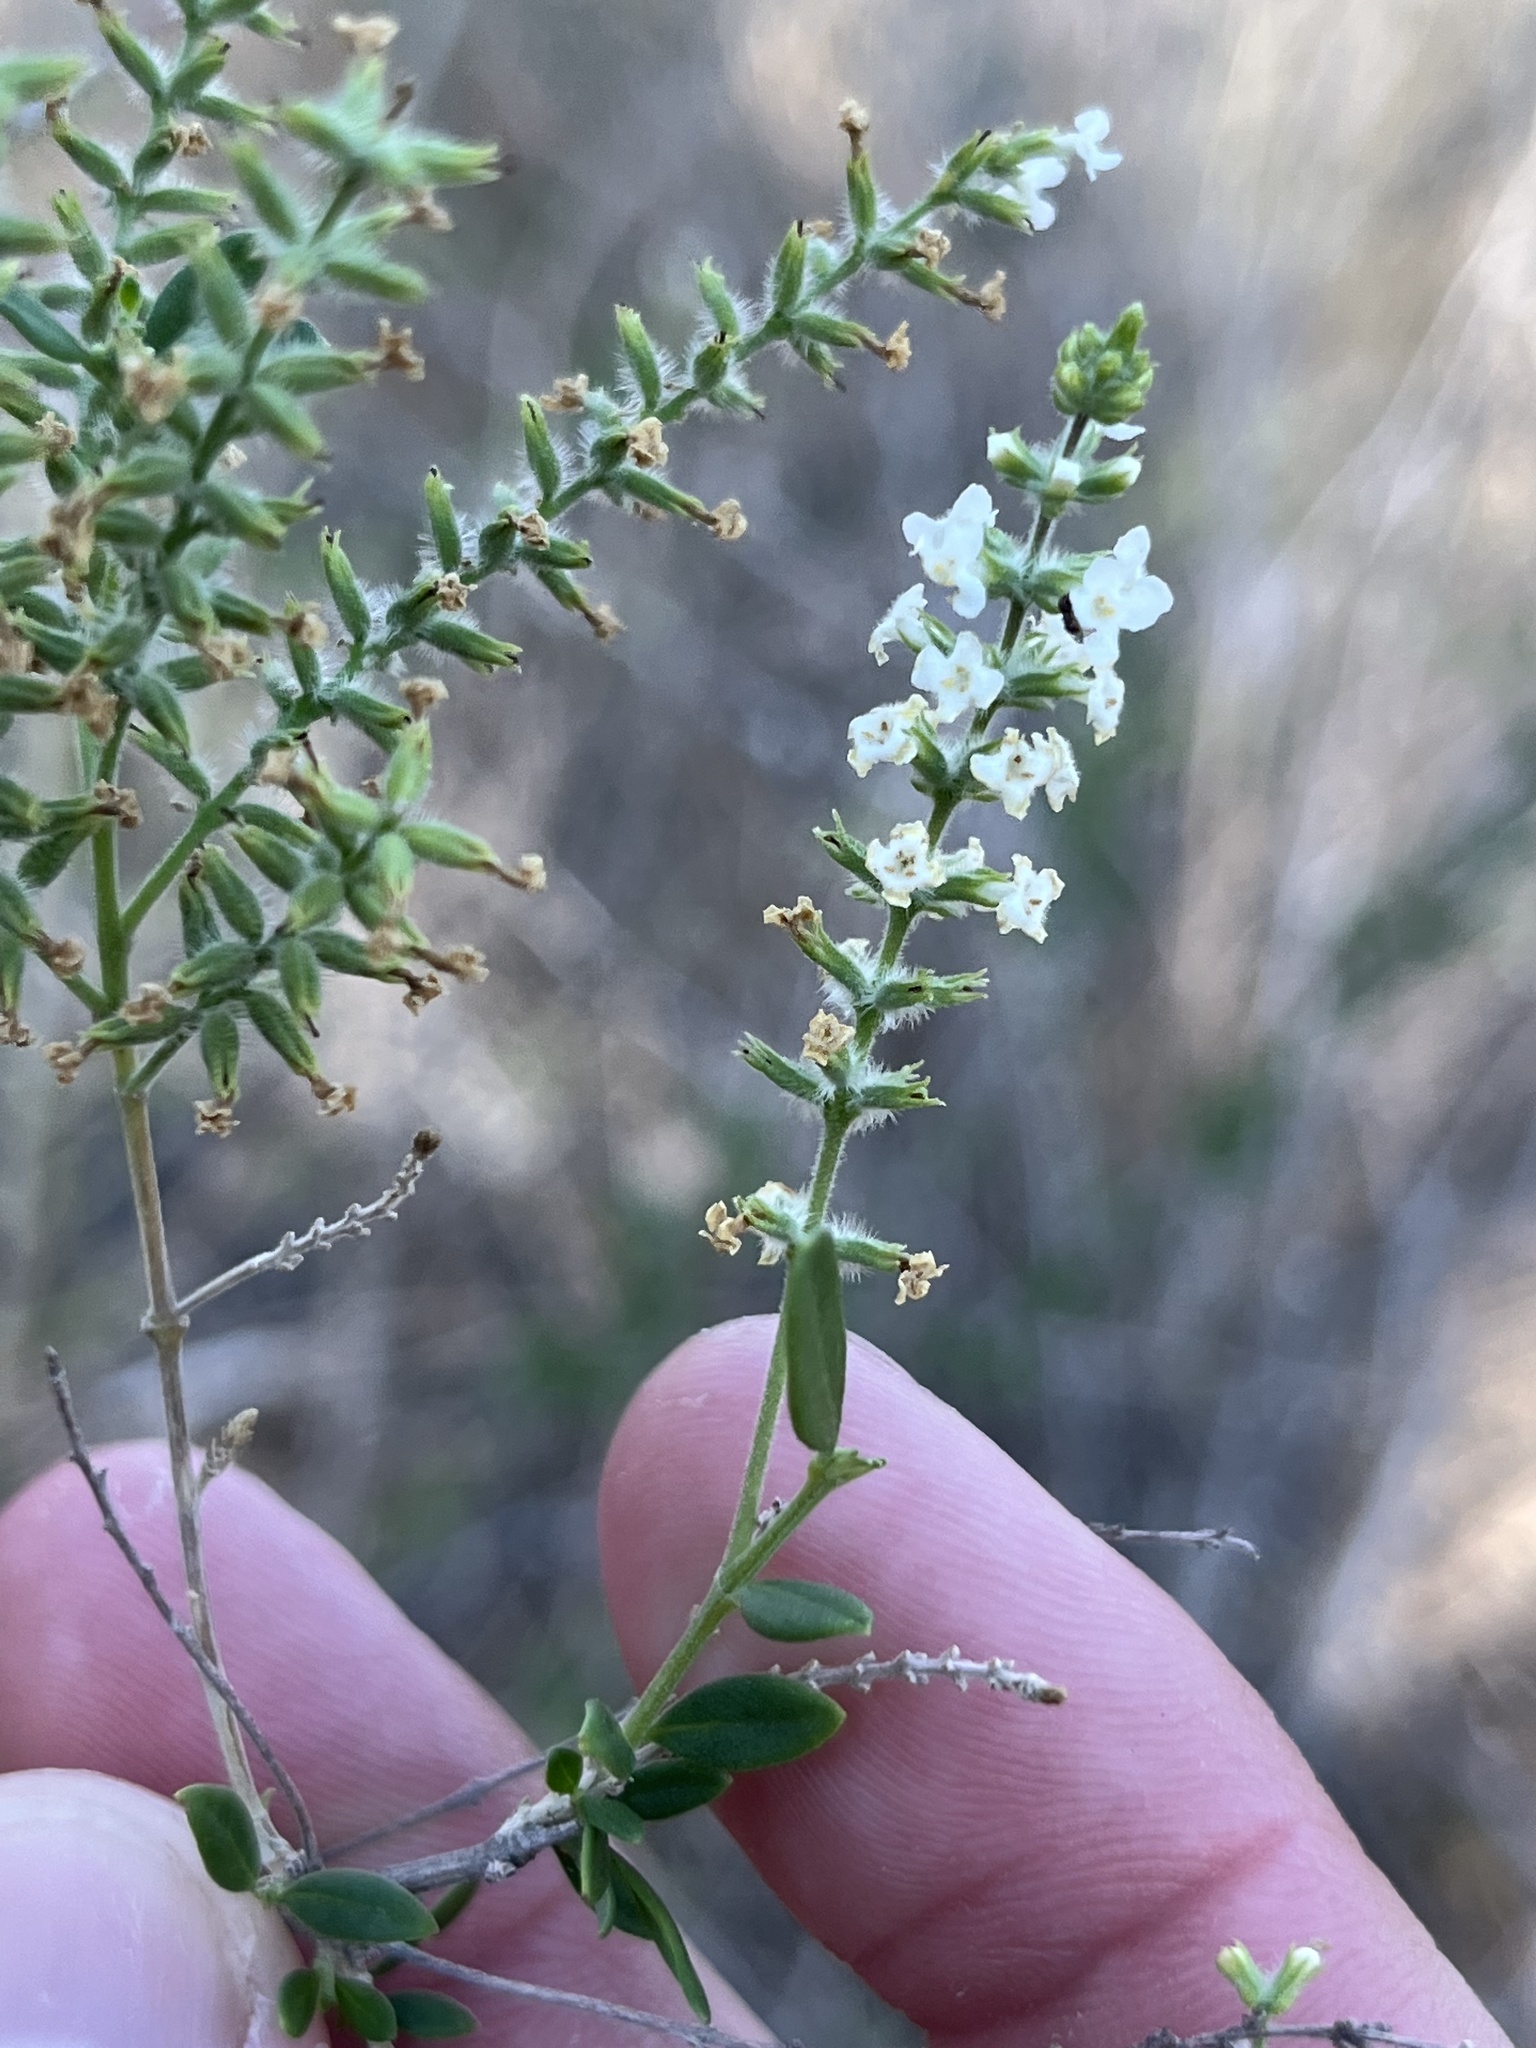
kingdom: Plantae
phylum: Tracheophyta
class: Magnoliopsida
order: Lamiales
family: Verbenaceae
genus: Aloysia
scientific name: Aloysia gratissima
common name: Common bee-brush
